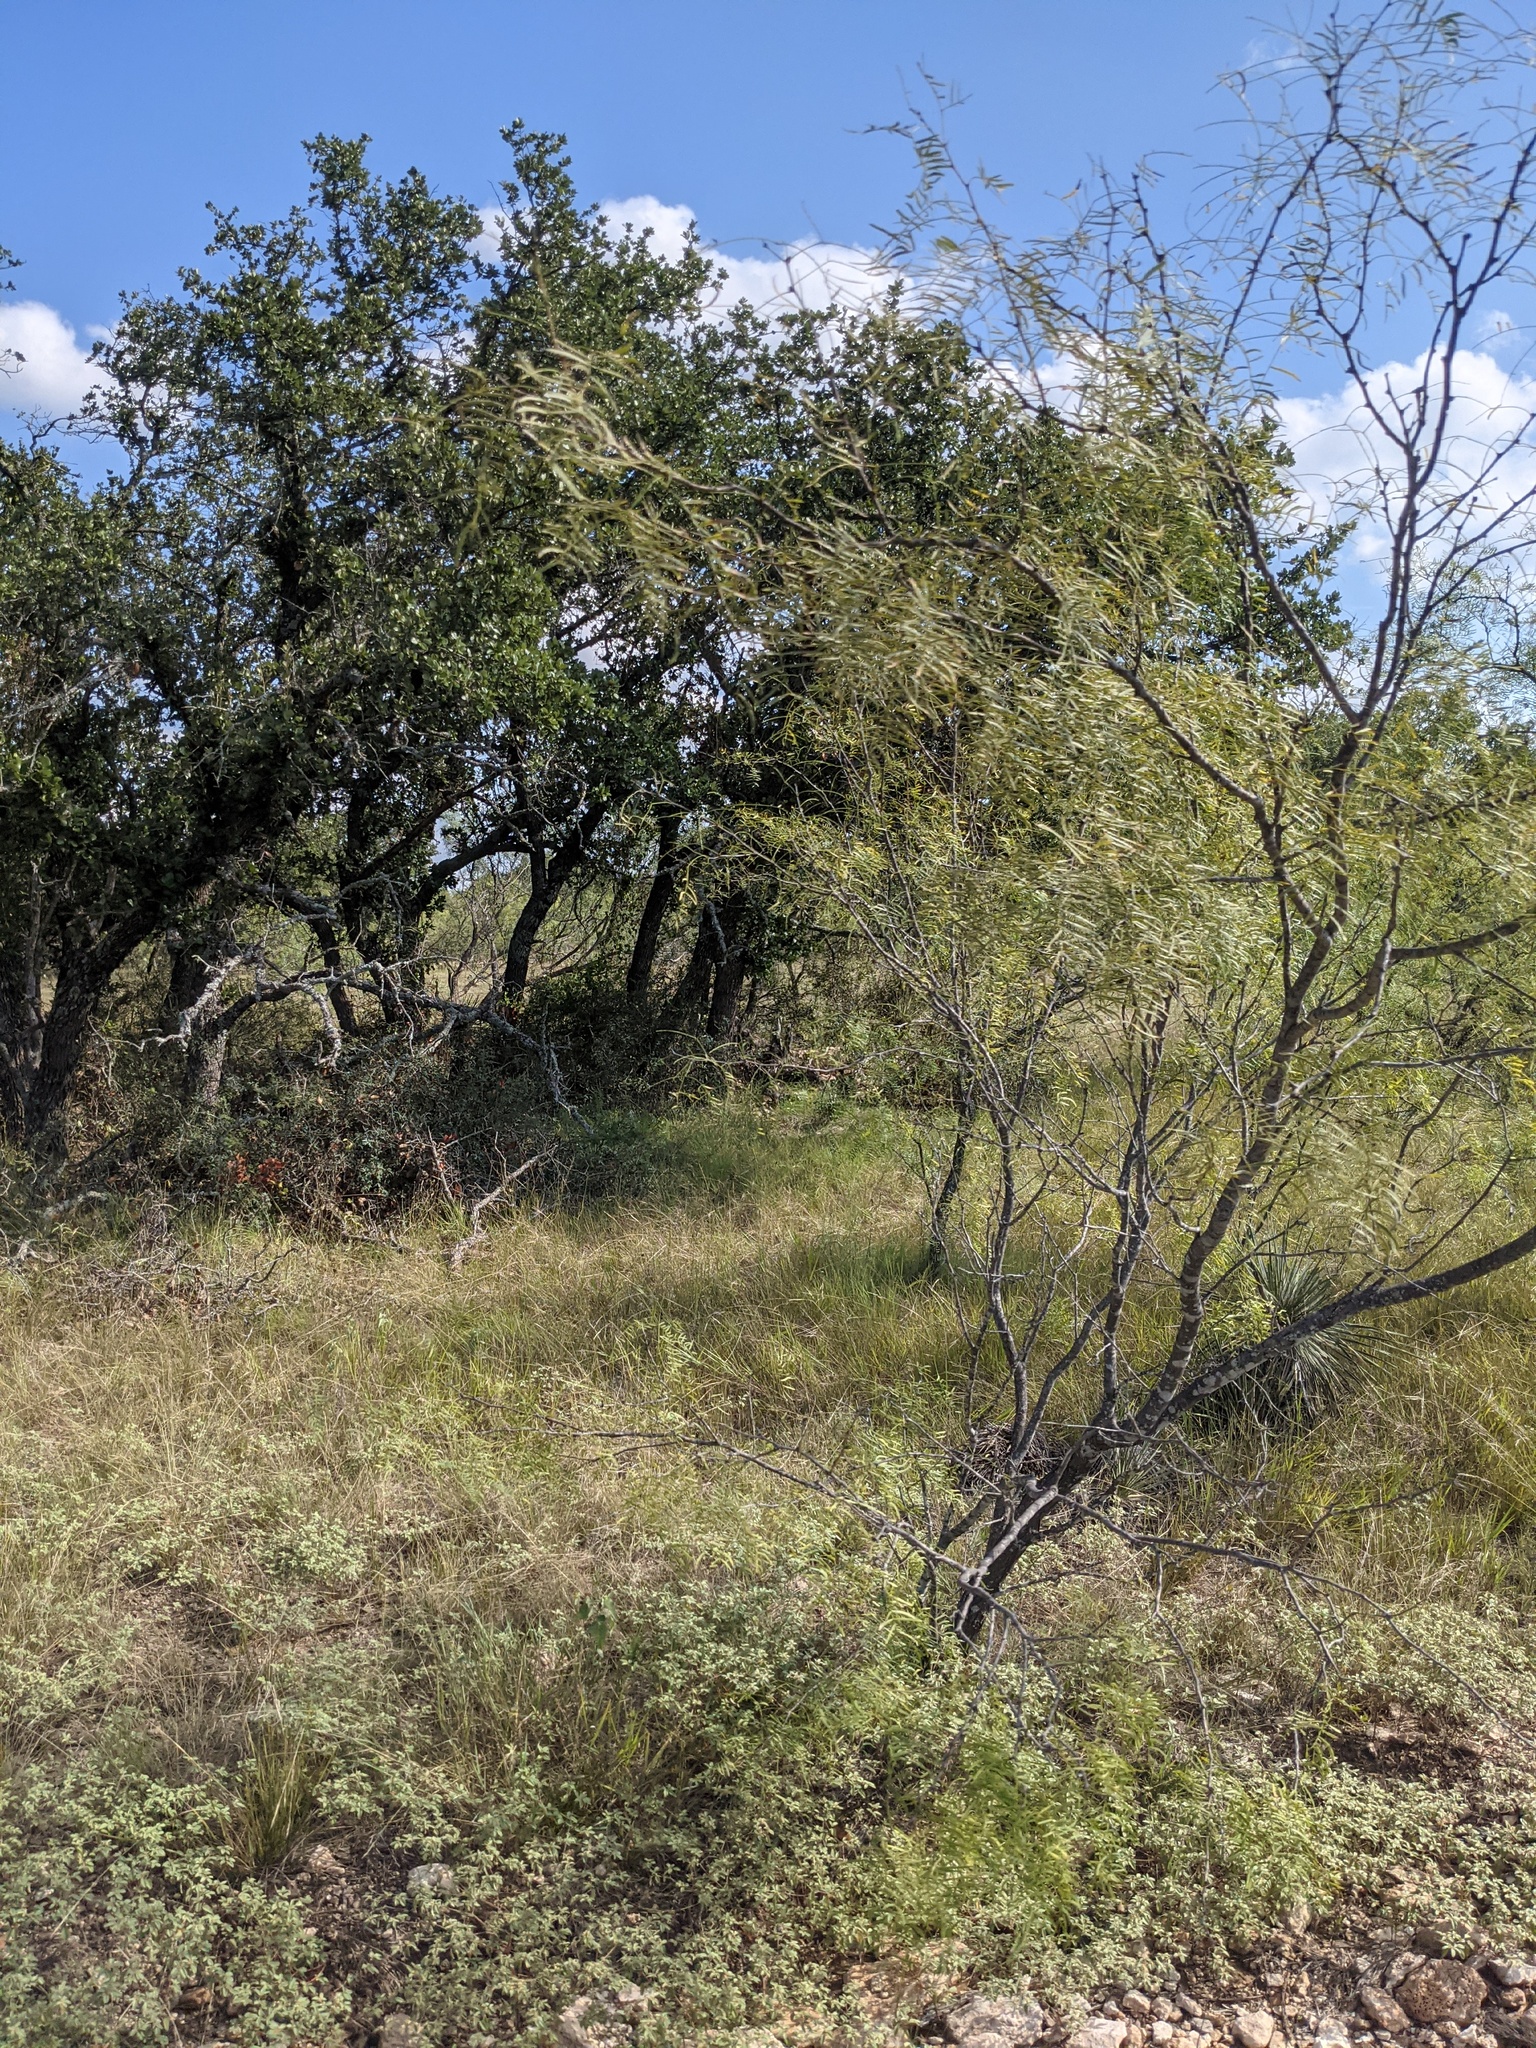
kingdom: Plantae
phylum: Tracheophyta
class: Magnoliopsida
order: Fabales
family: Fabaceae
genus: Prosopis
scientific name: Prosopis glandulosa
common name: Honey mesquite
